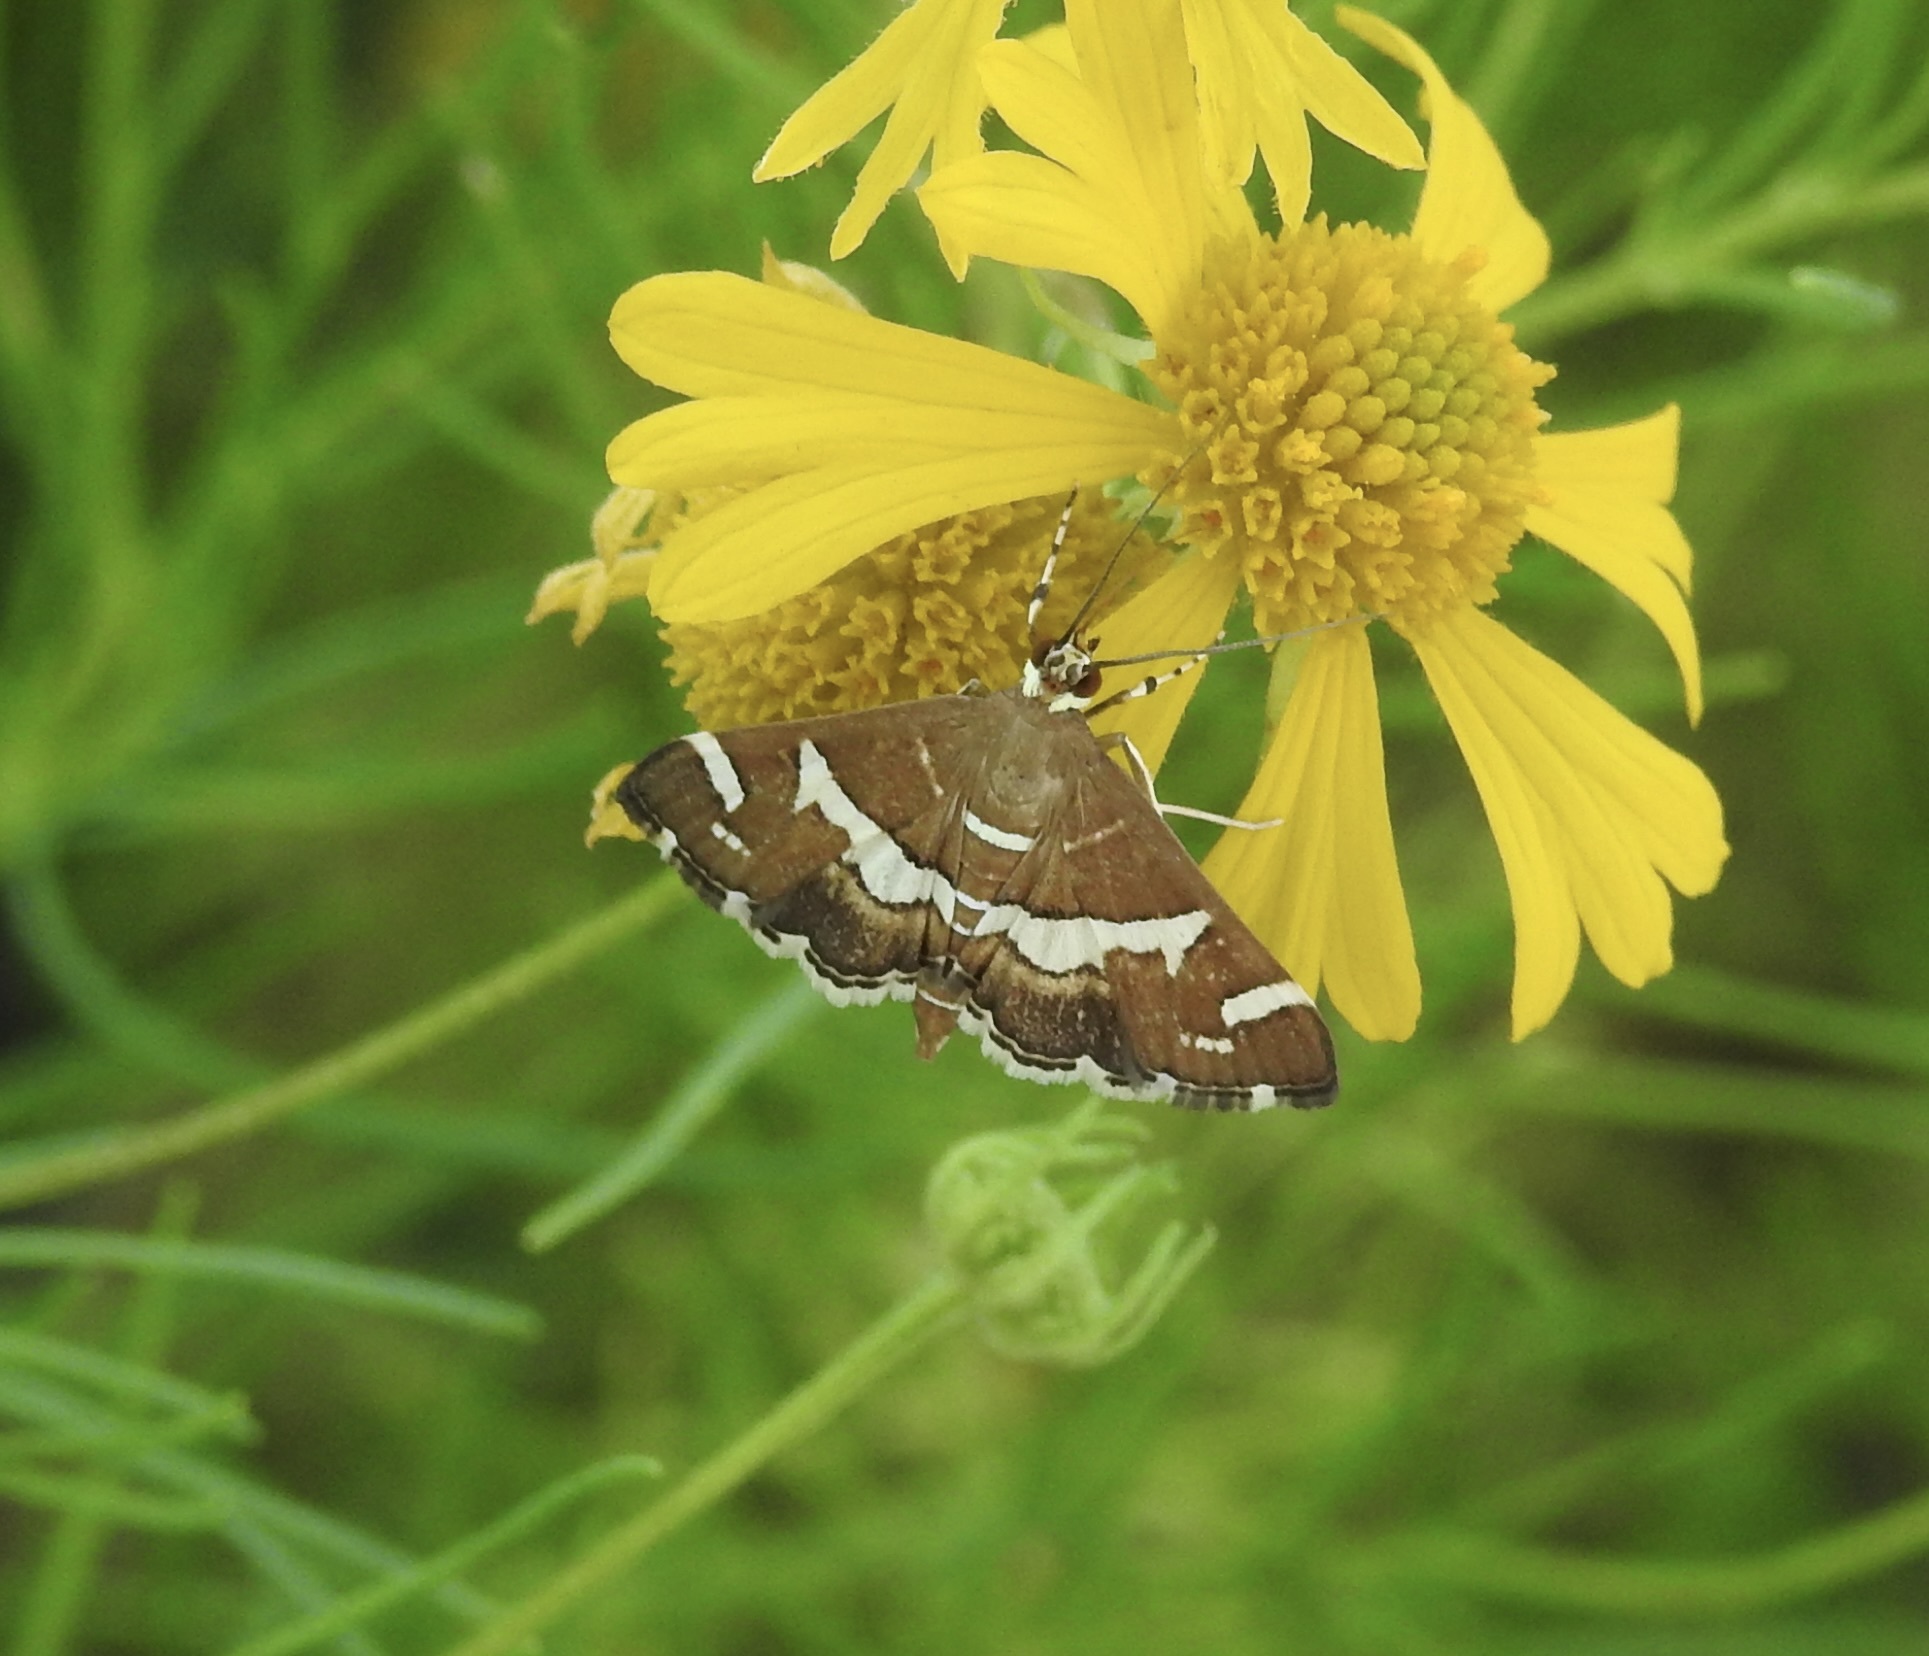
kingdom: Animalia
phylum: Arthropoda
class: Insecta
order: Lepidoptera
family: Crambidae
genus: Spoladea
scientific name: Spoladea recurvalis
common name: Beet webworm moth
